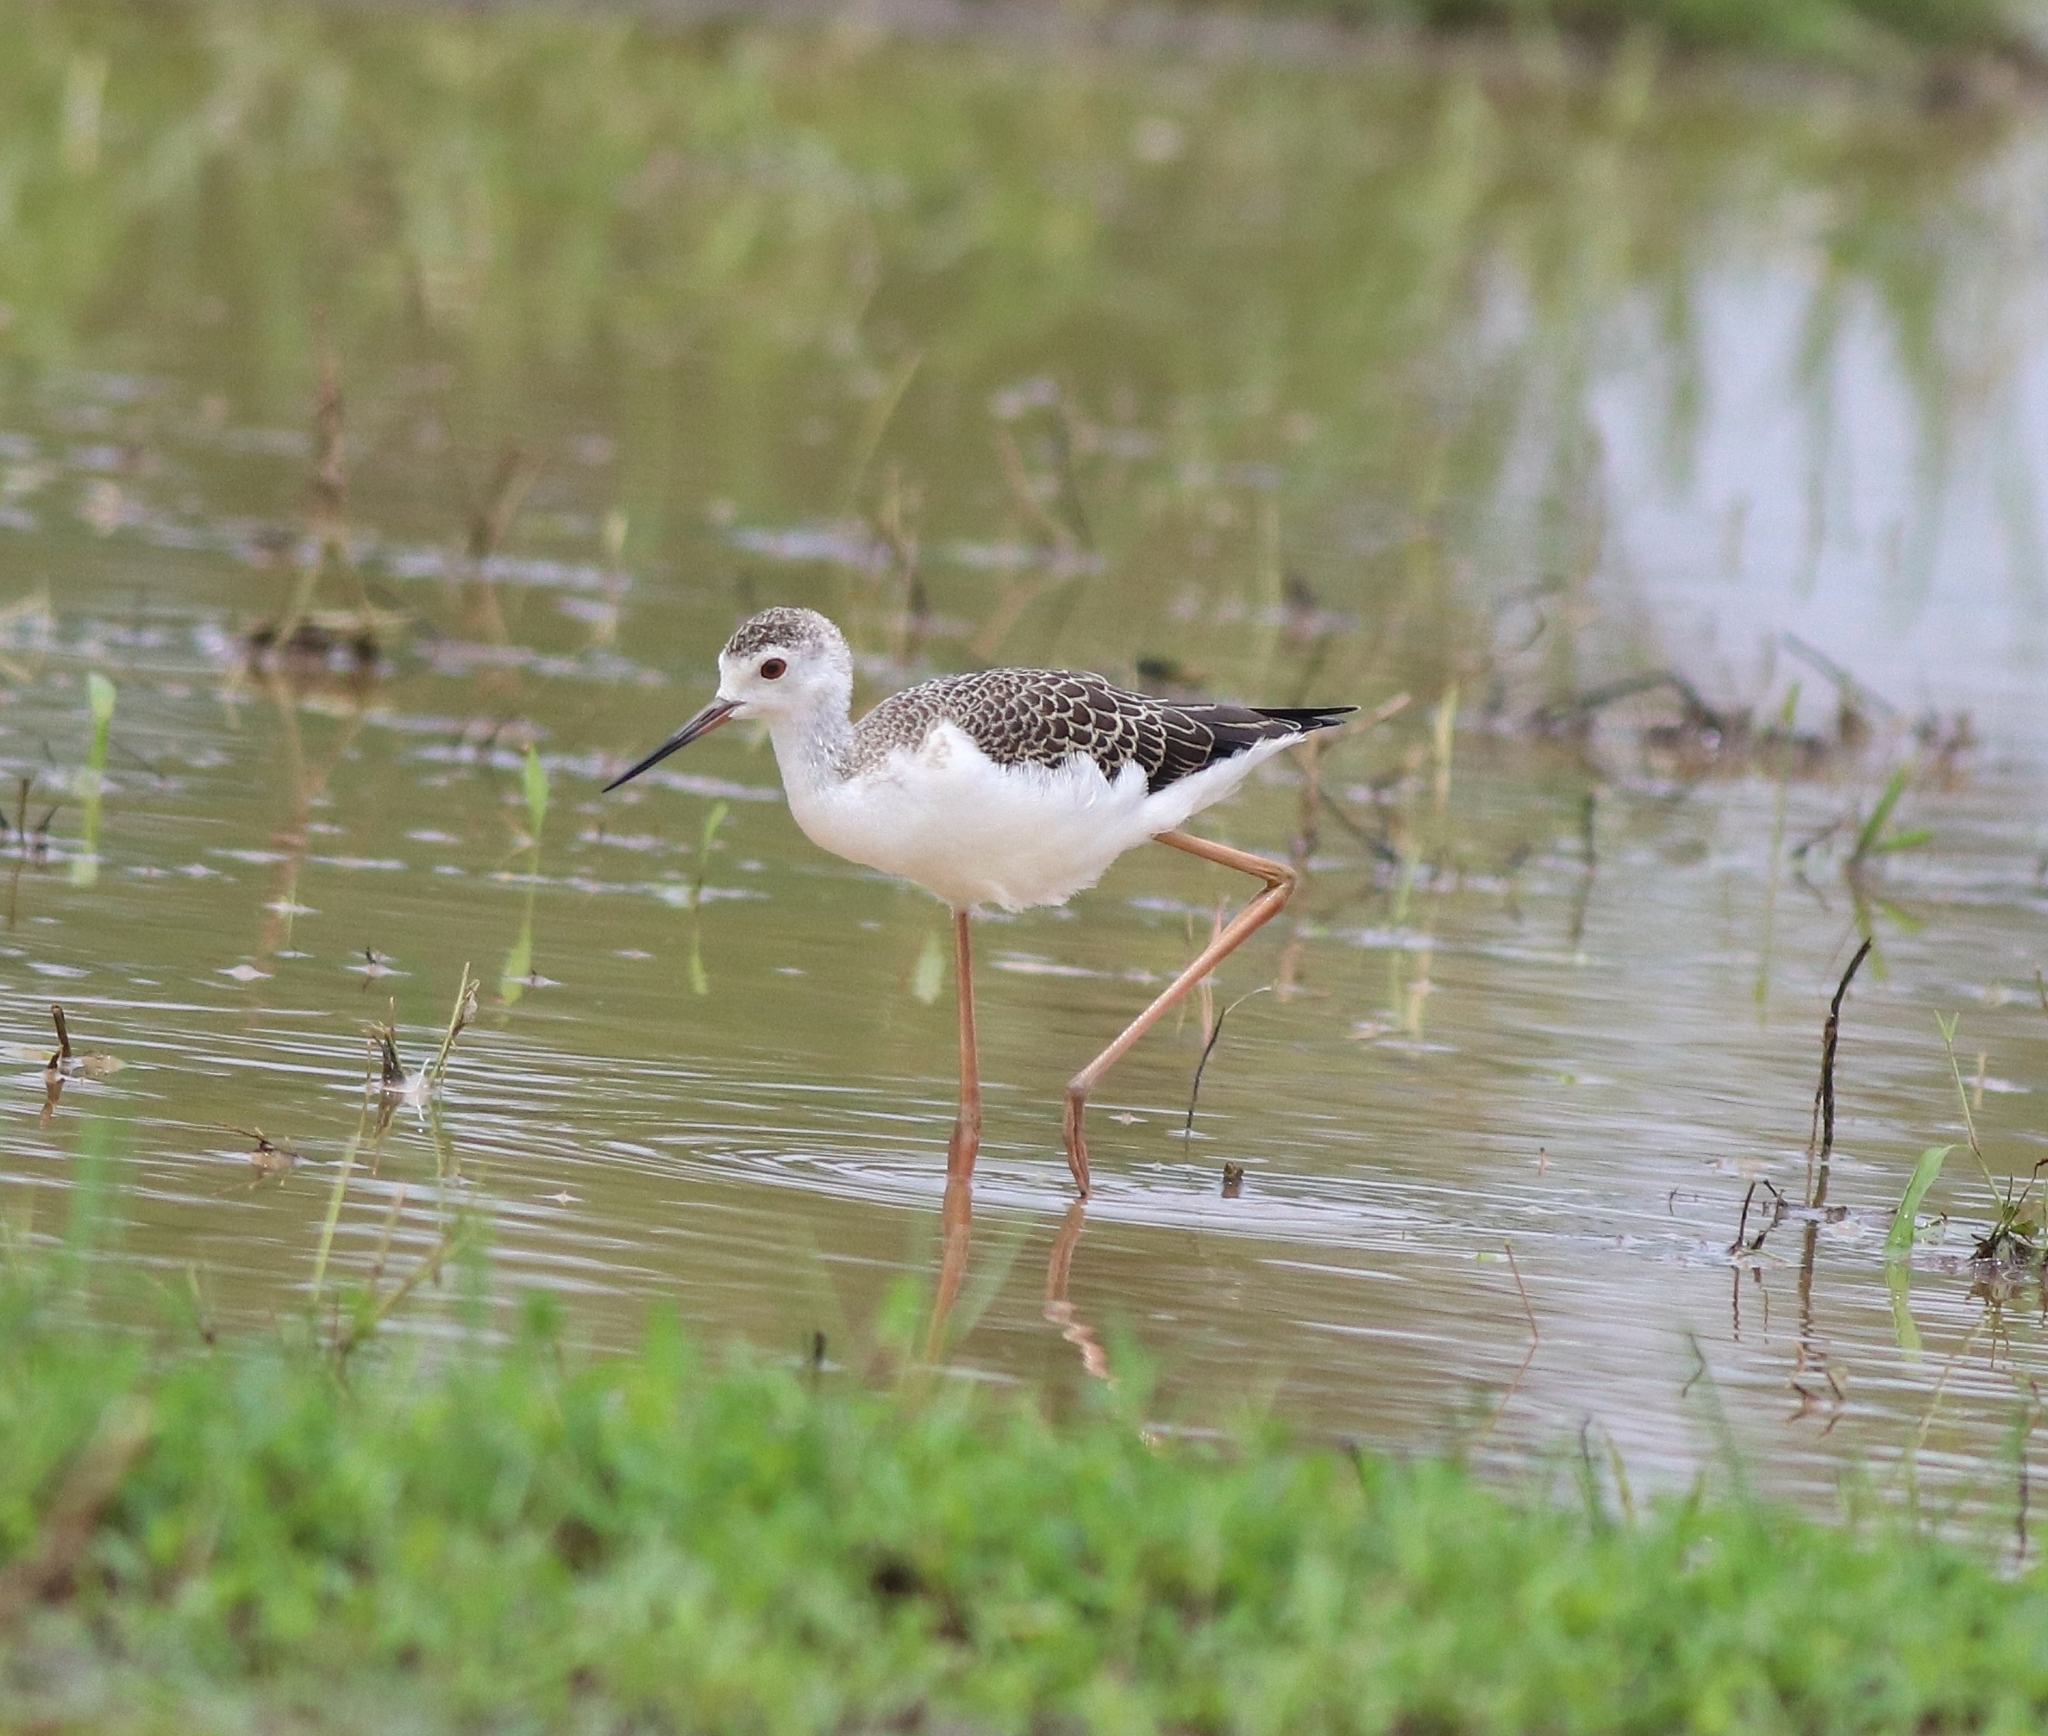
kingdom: Animalia
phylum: Chordata
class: Aves
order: Charadriiformes
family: Recurvirostridae
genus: Himantopus
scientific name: Himantopus himantopus
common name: Black-winged stilt
